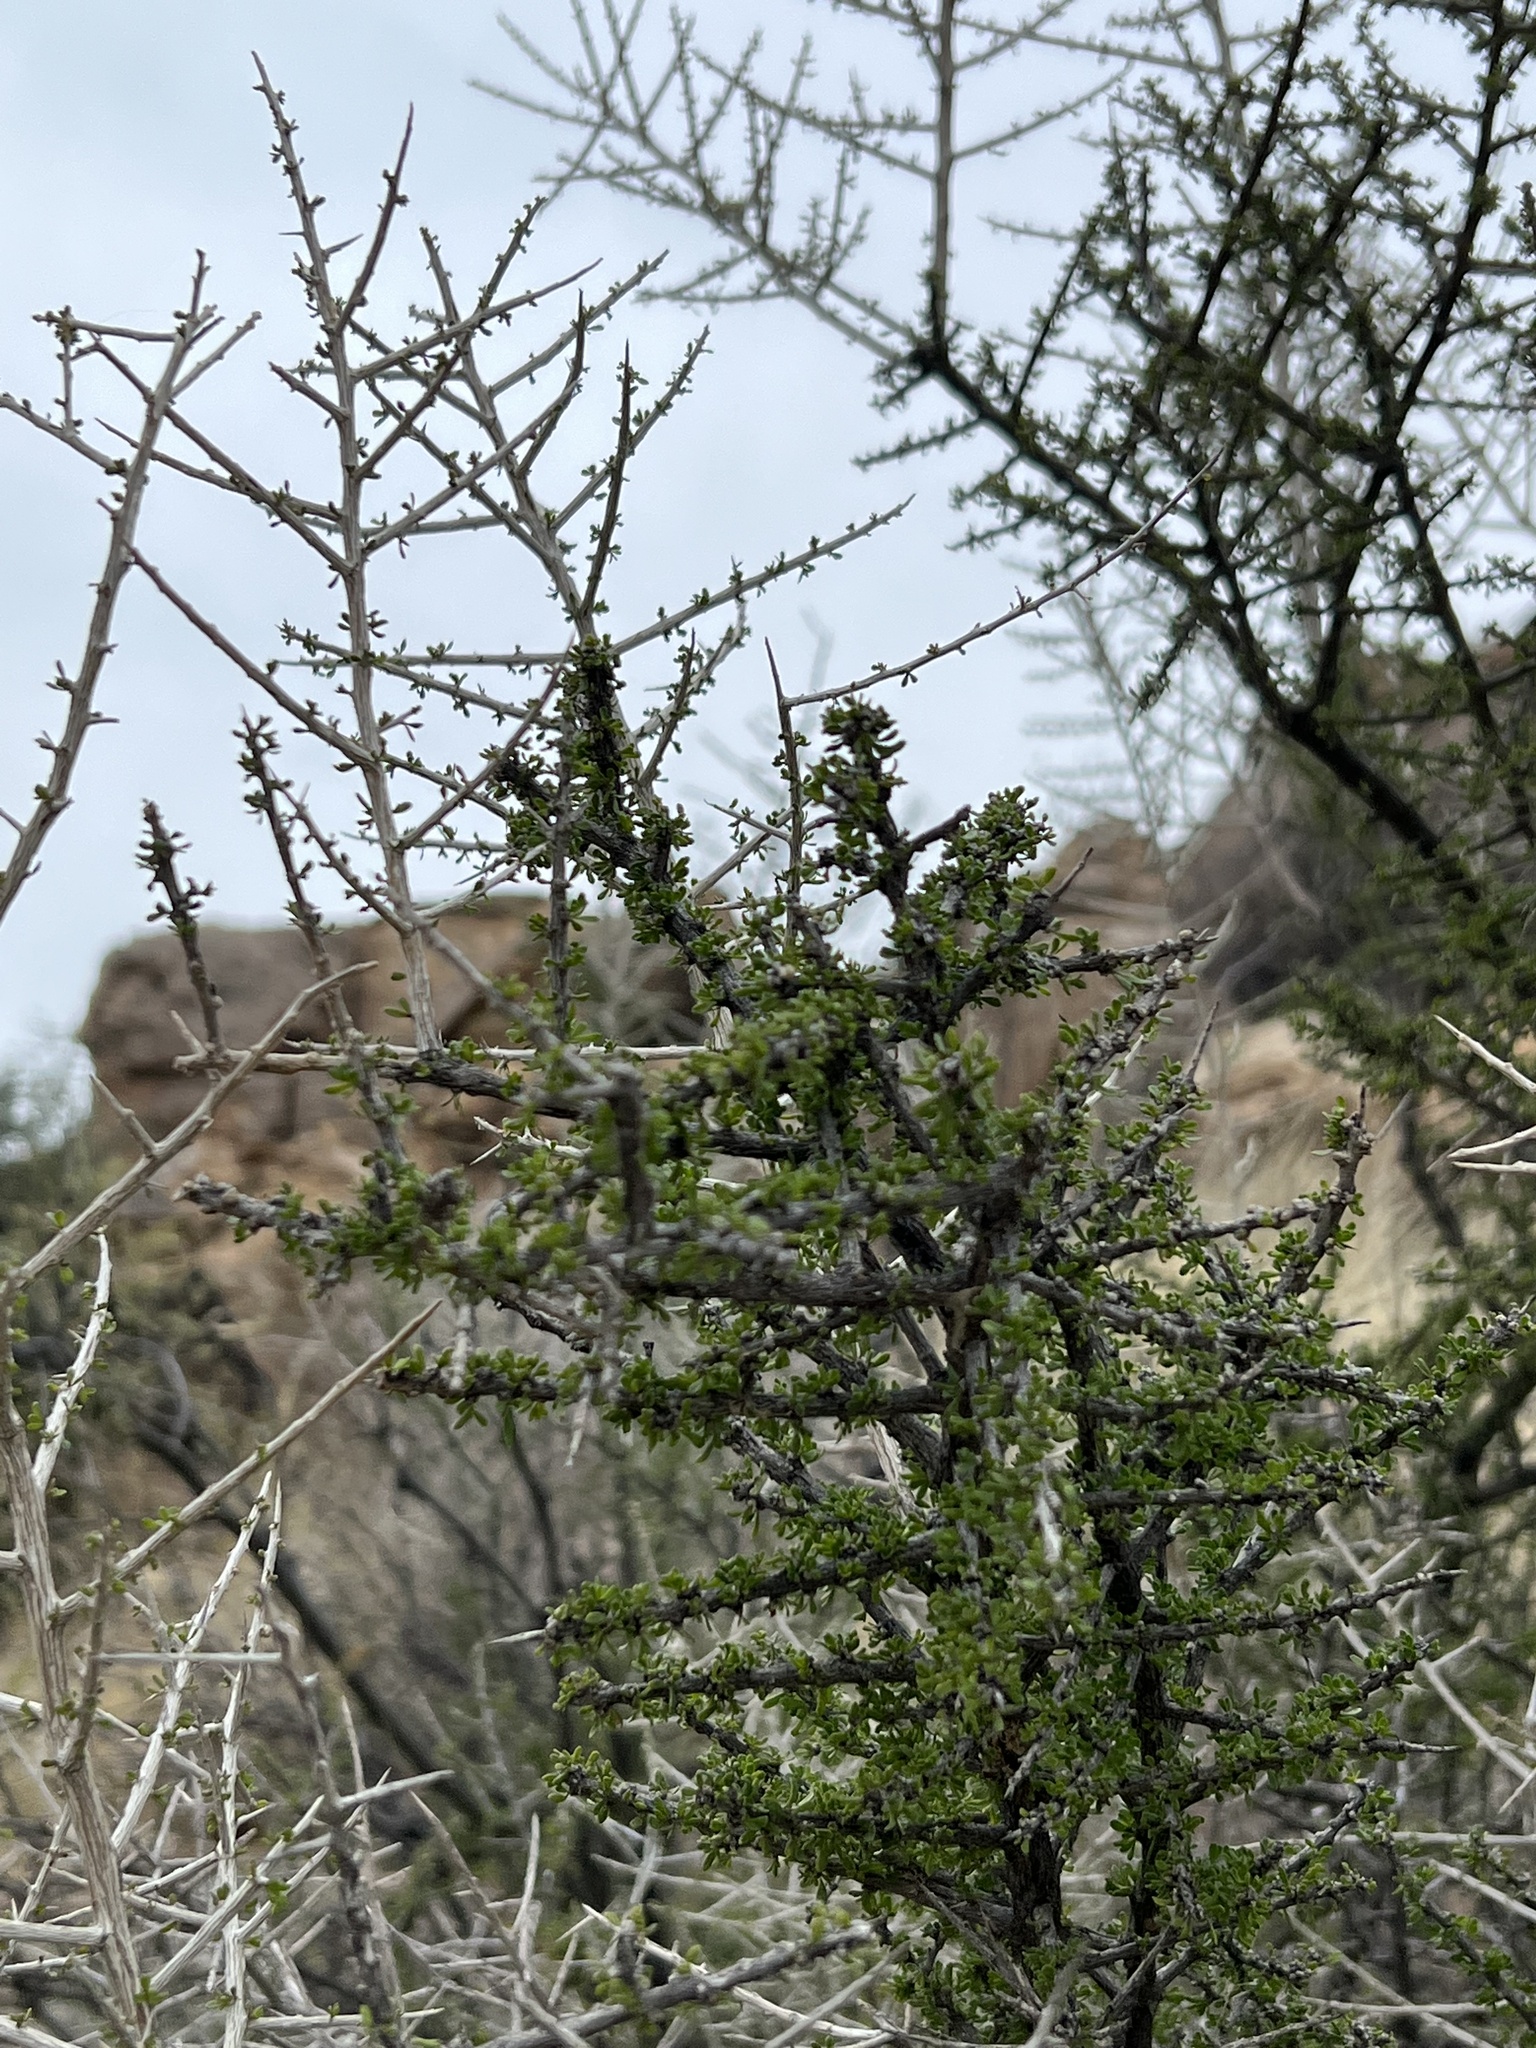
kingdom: Plantae
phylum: Tracheophyta
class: Magnoliopsida
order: Rosales
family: Rhamnaceae
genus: Condalia
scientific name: Condalia warnockii
